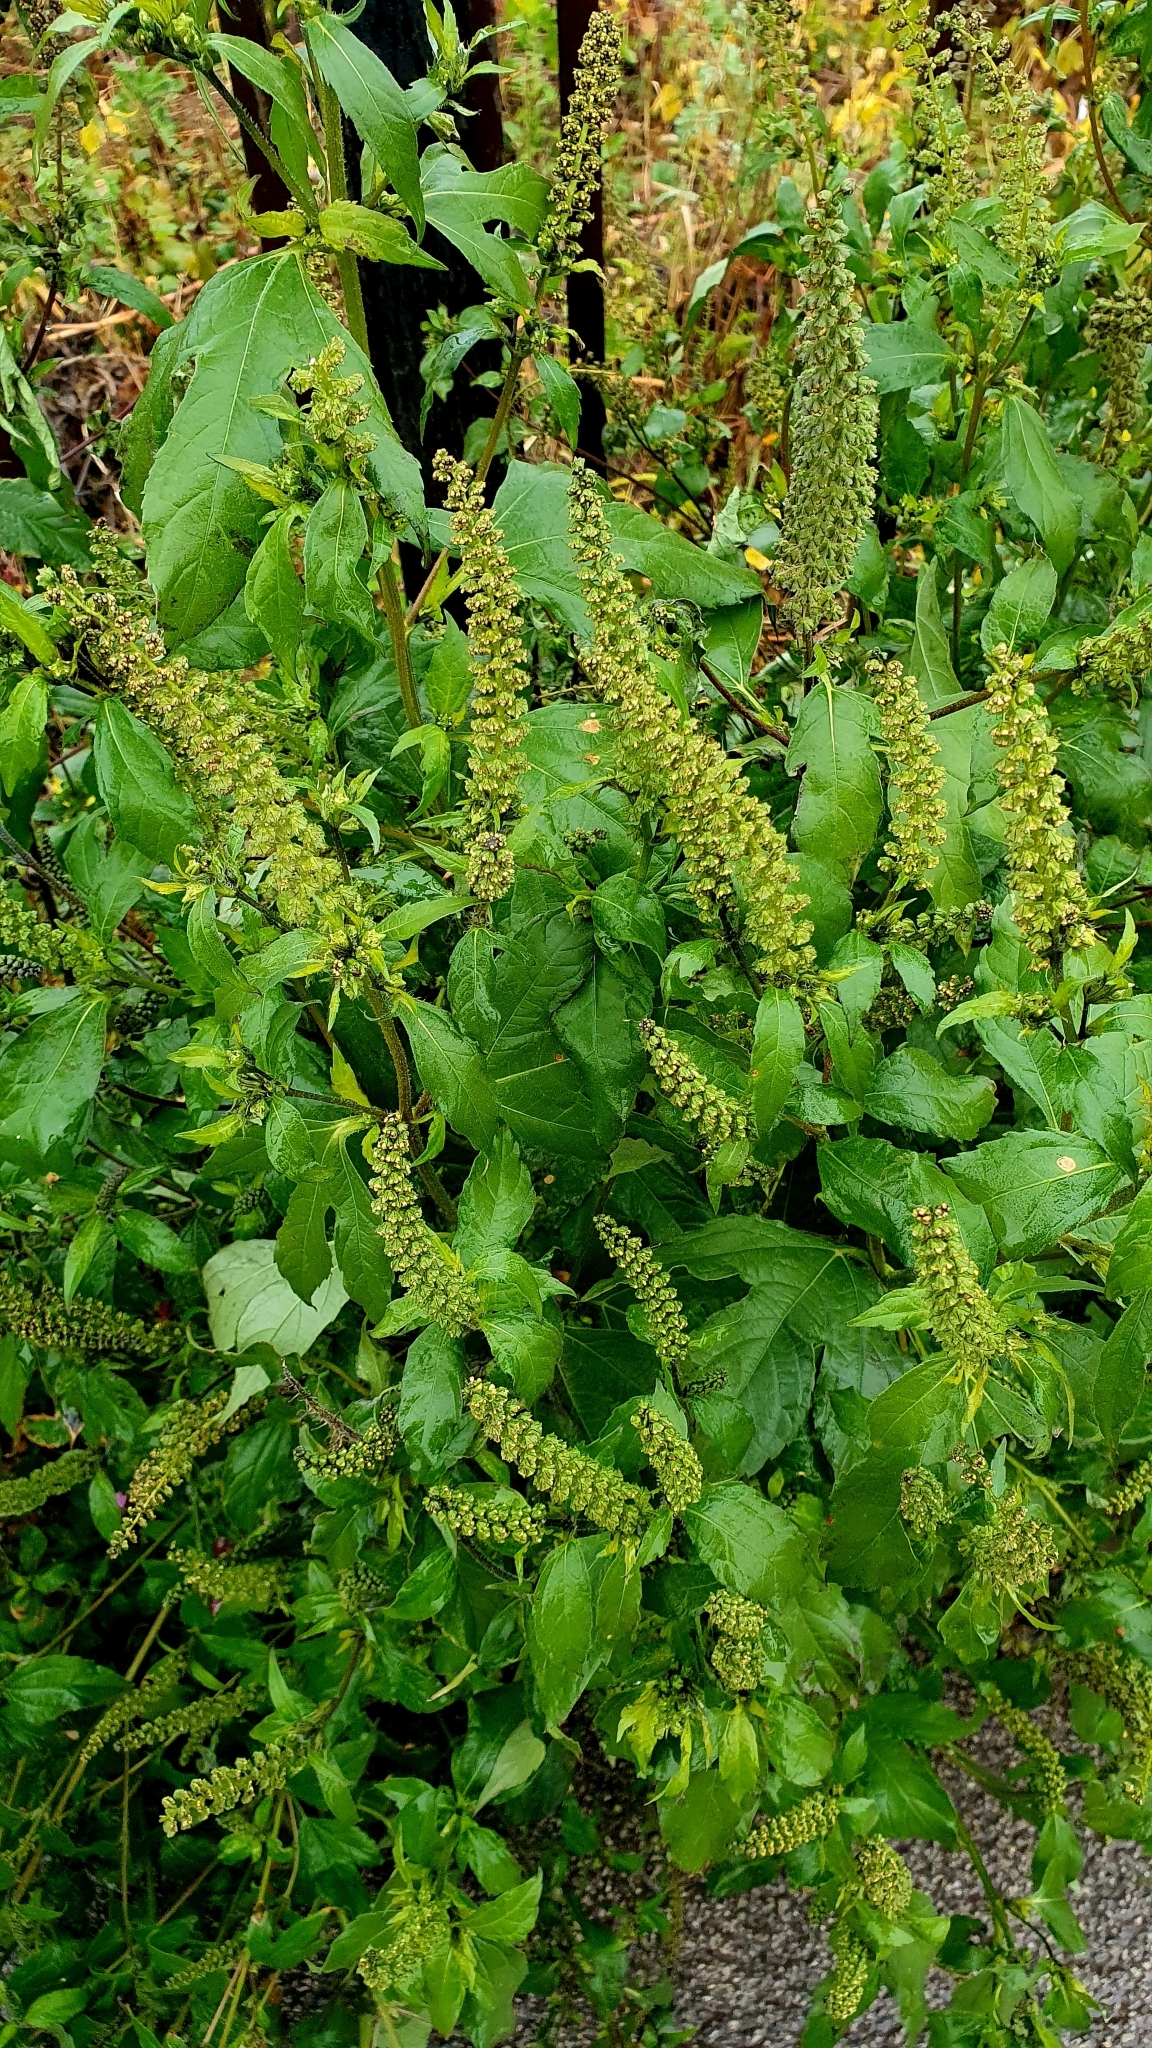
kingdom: Plantae
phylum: Tracheophyta
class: Magnoliopsida
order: Asterales
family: Asteraceae
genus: Ambrosia
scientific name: Ambrosia trifida
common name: Giant ragweed
